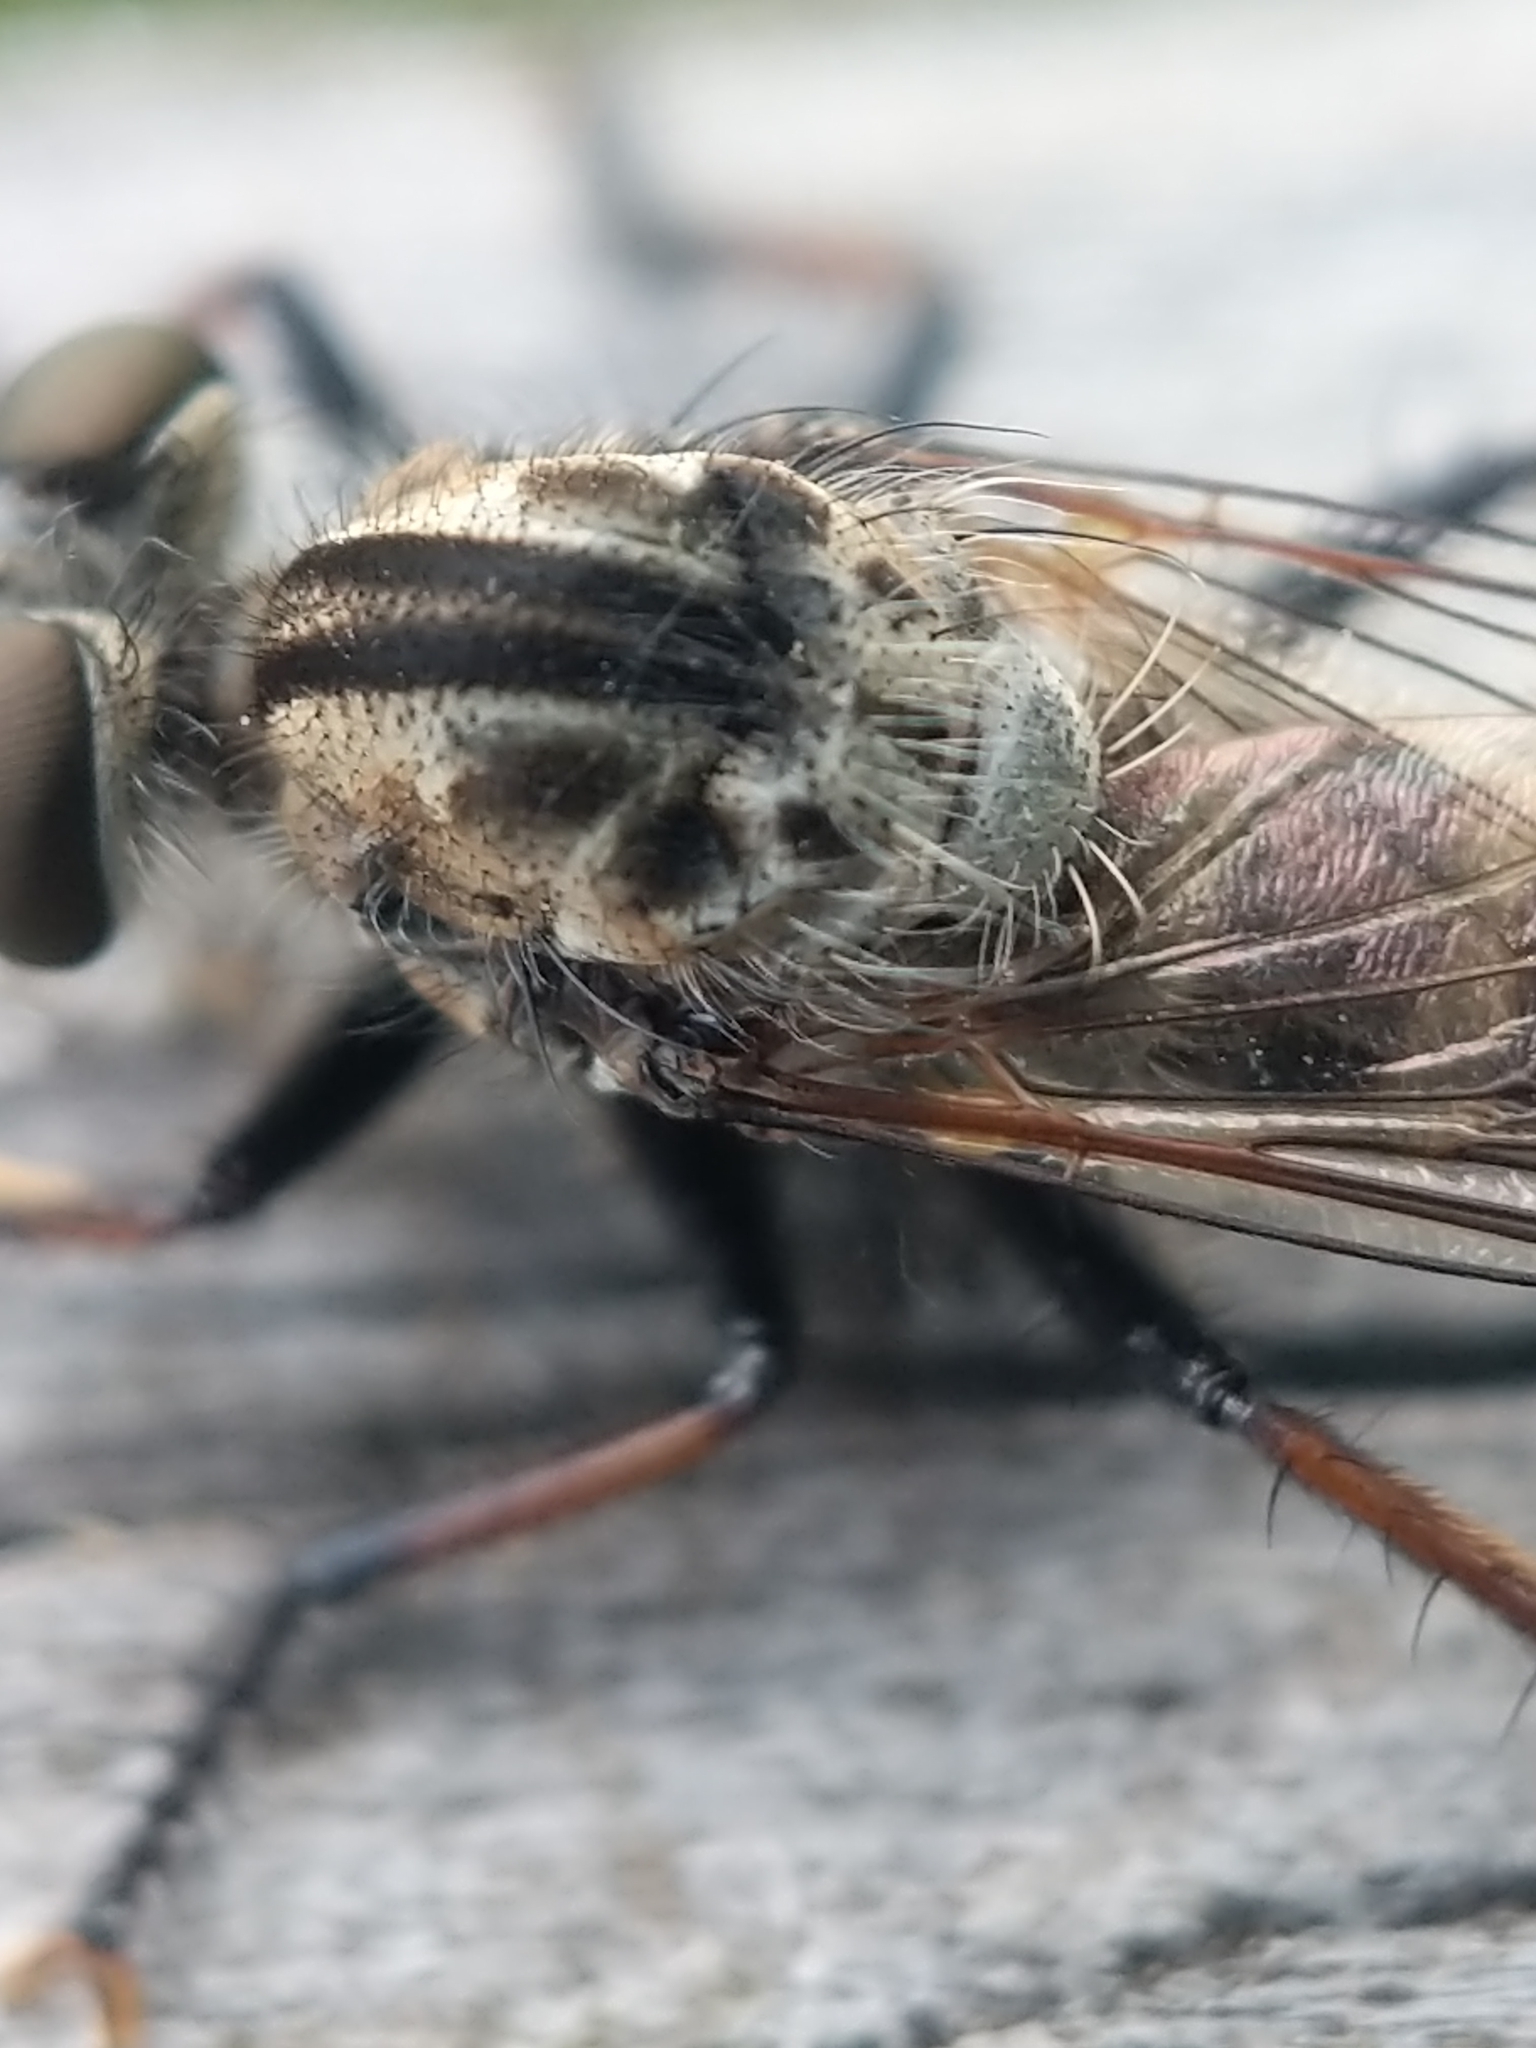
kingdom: Animalia
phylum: Arthropoda
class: Insecta
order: Diptera
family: Asilidae
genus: Efferia
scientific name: Efferia
